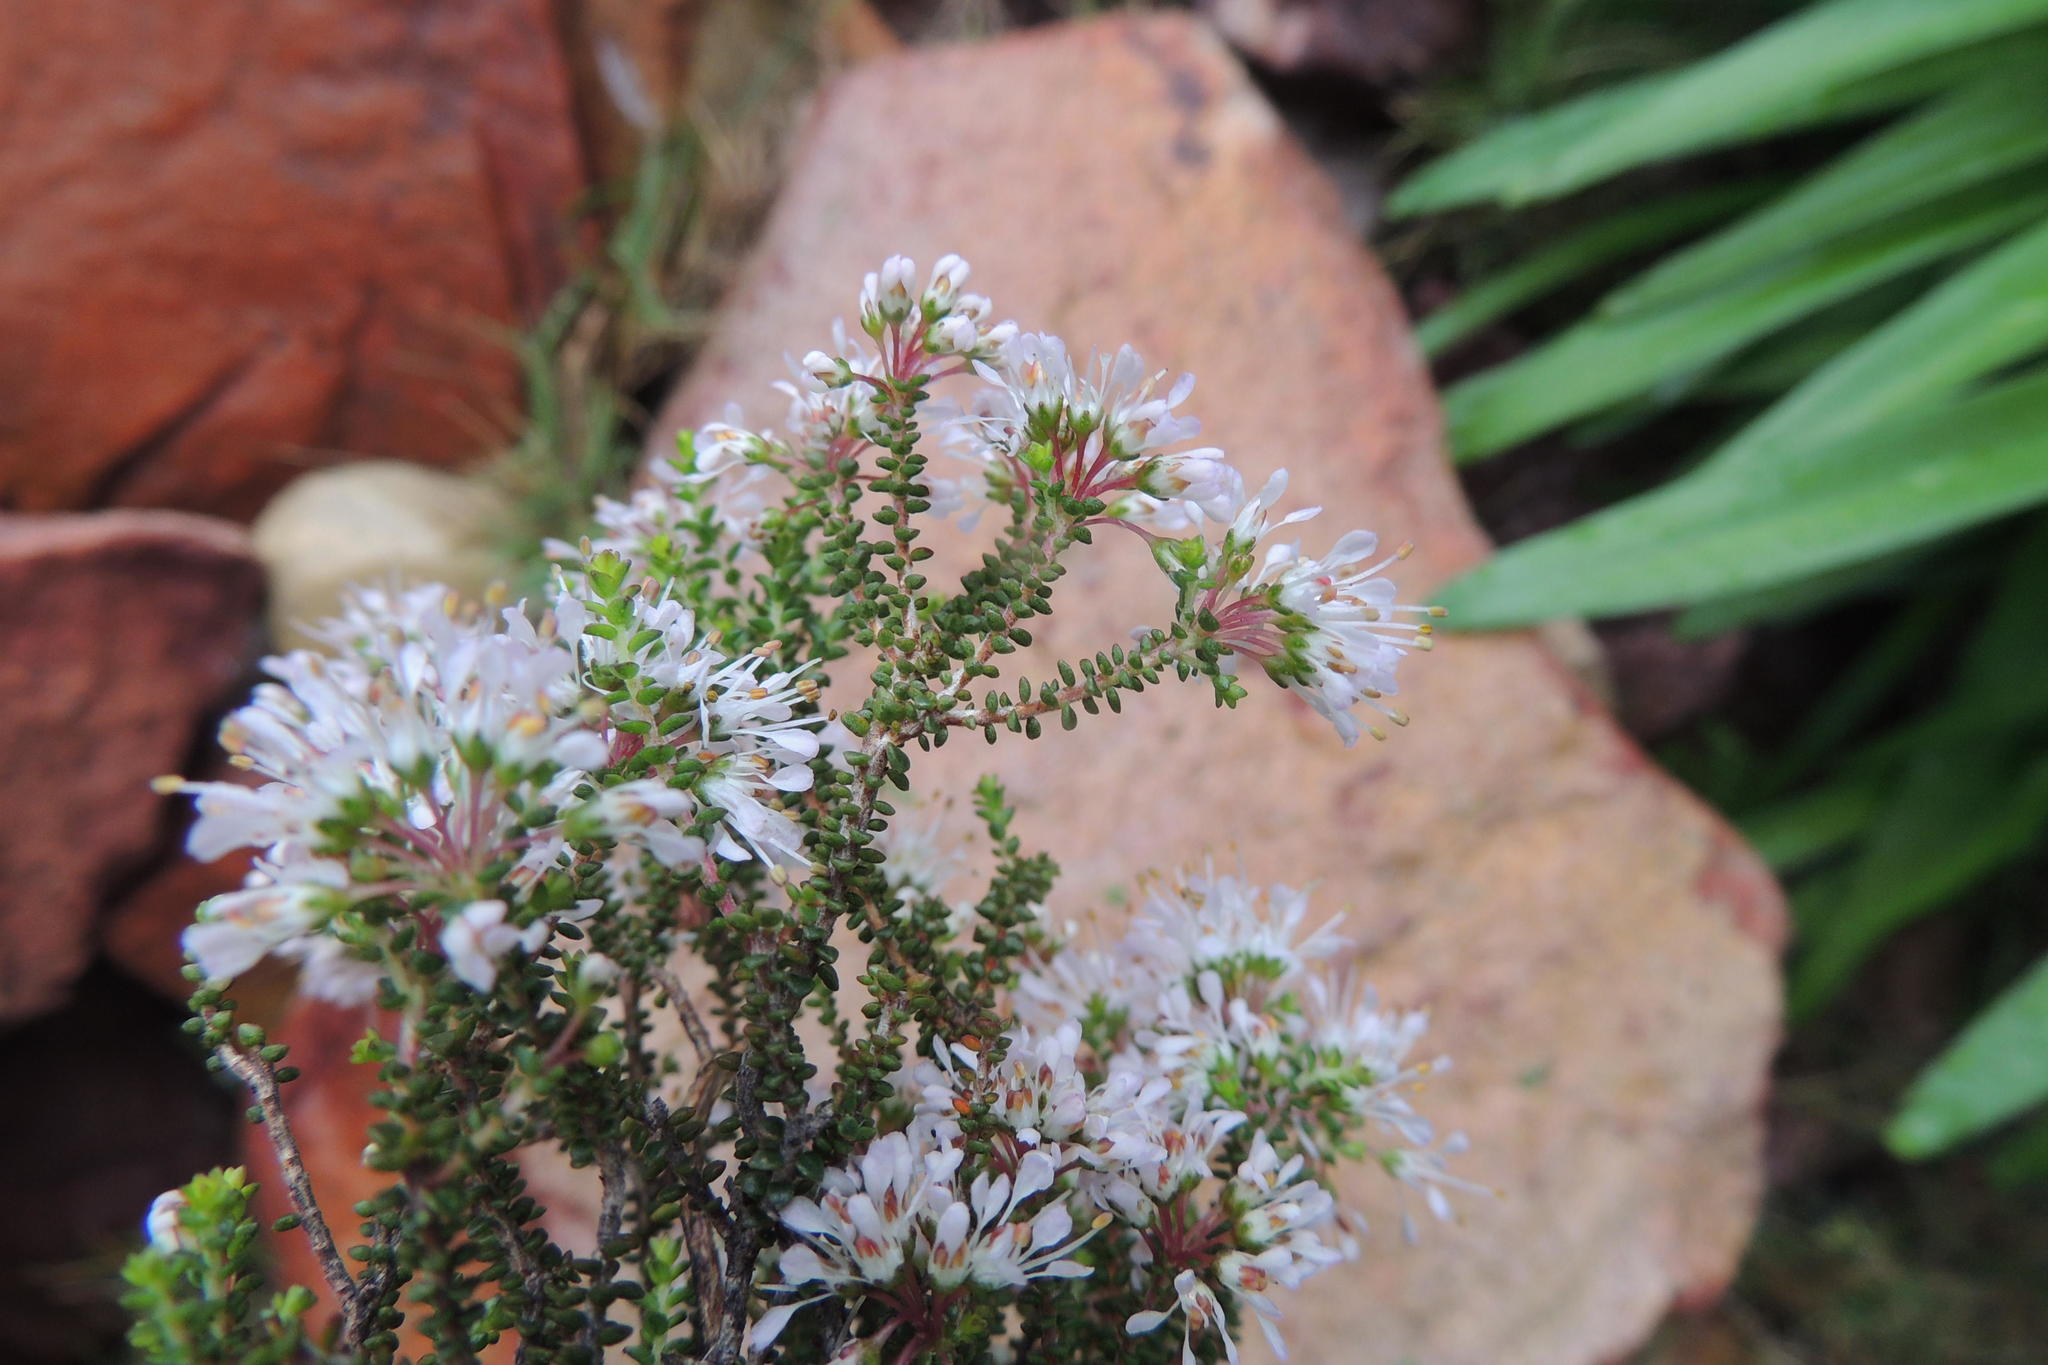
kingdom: Plantae
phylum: Tracheophyta
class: Magnoliopsida
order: Sapindales
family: Rutaceae
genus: Agathosma
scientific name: Agathosma crassifolia
